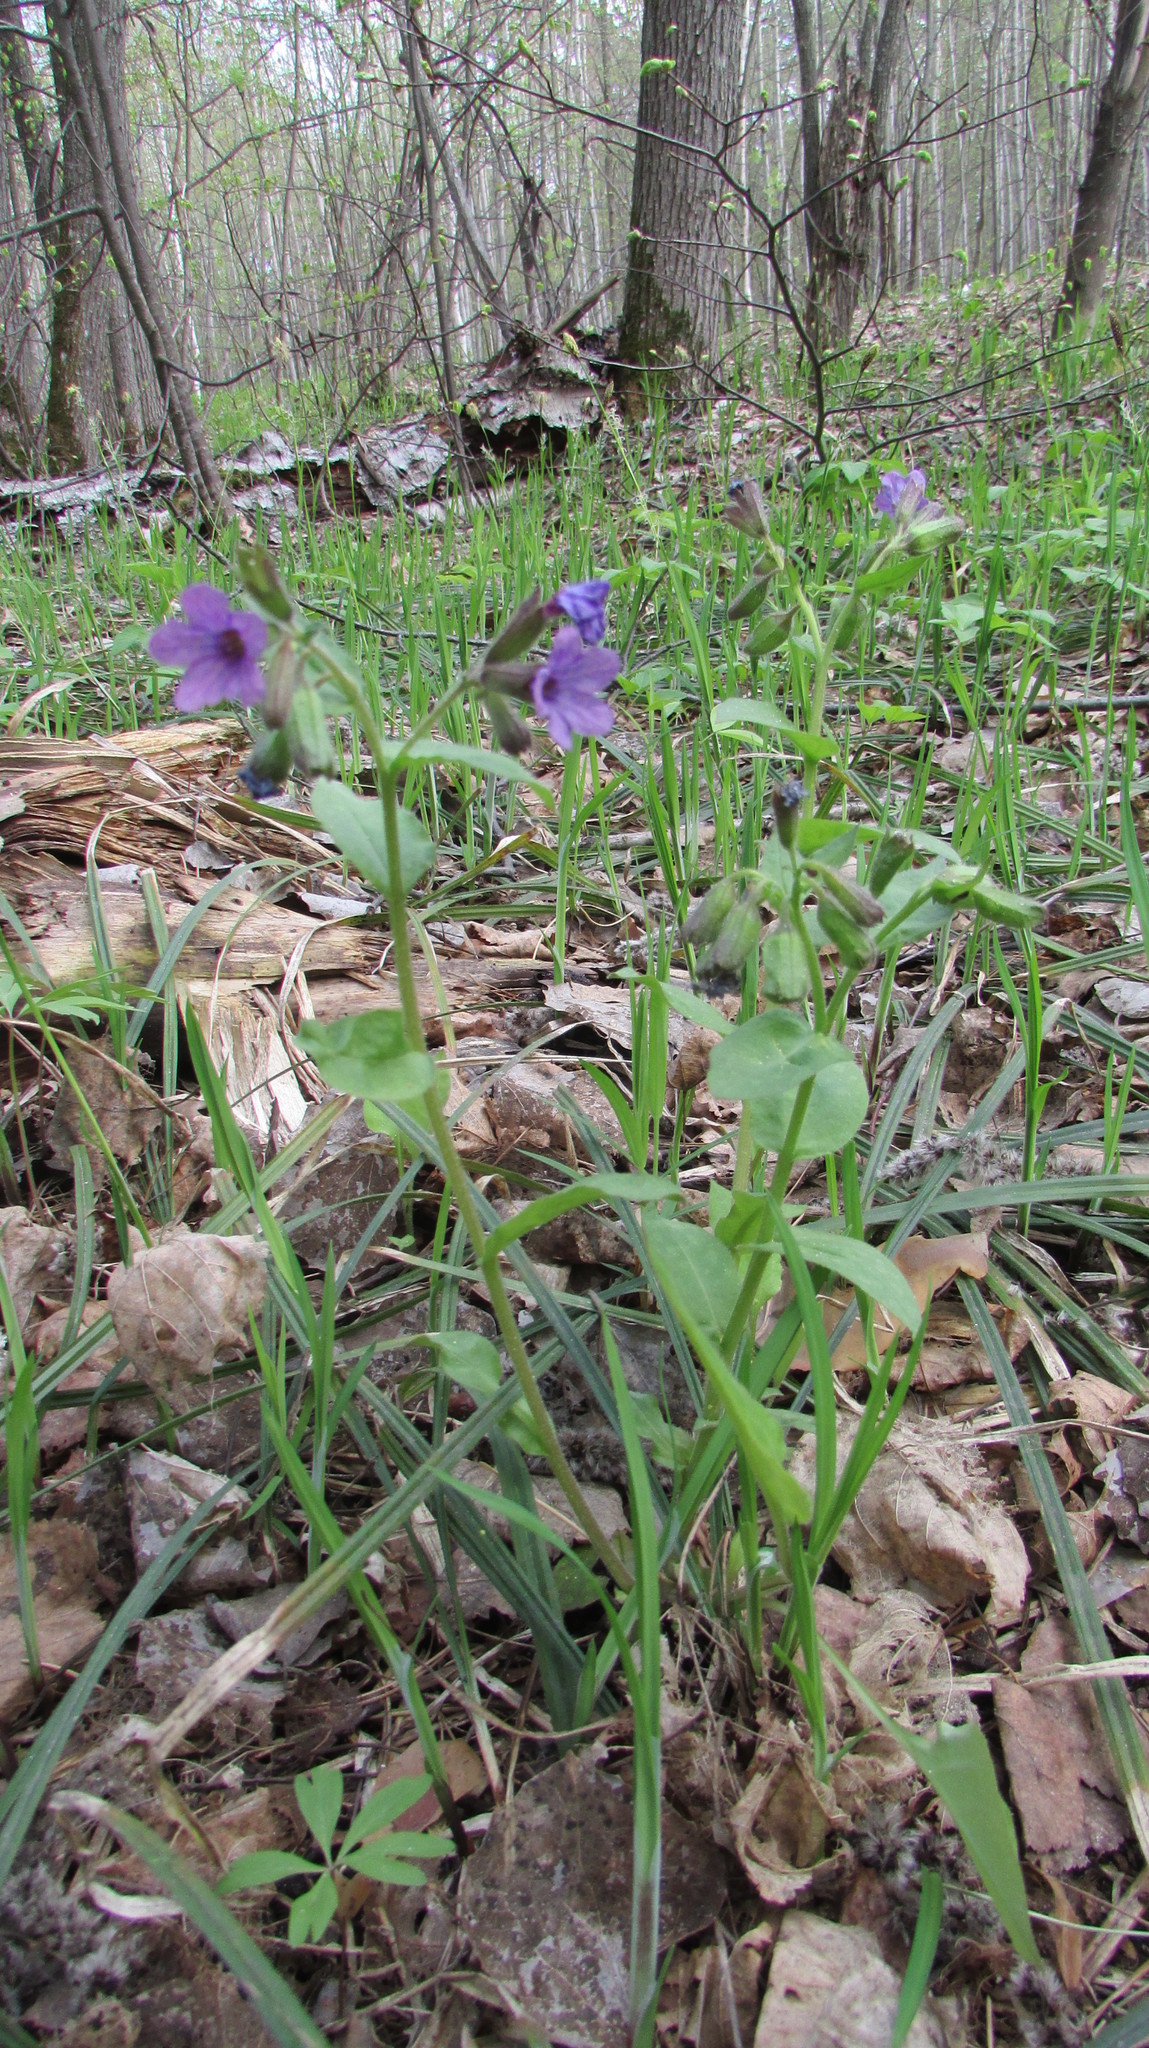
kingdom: Plantae
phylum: Tracheophyta
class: Magnoliopsida
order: Boraginales
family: Boraginaceae
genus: Pulmonaria
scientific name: Pulmonaria obscura
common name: Suffolk lungwort
